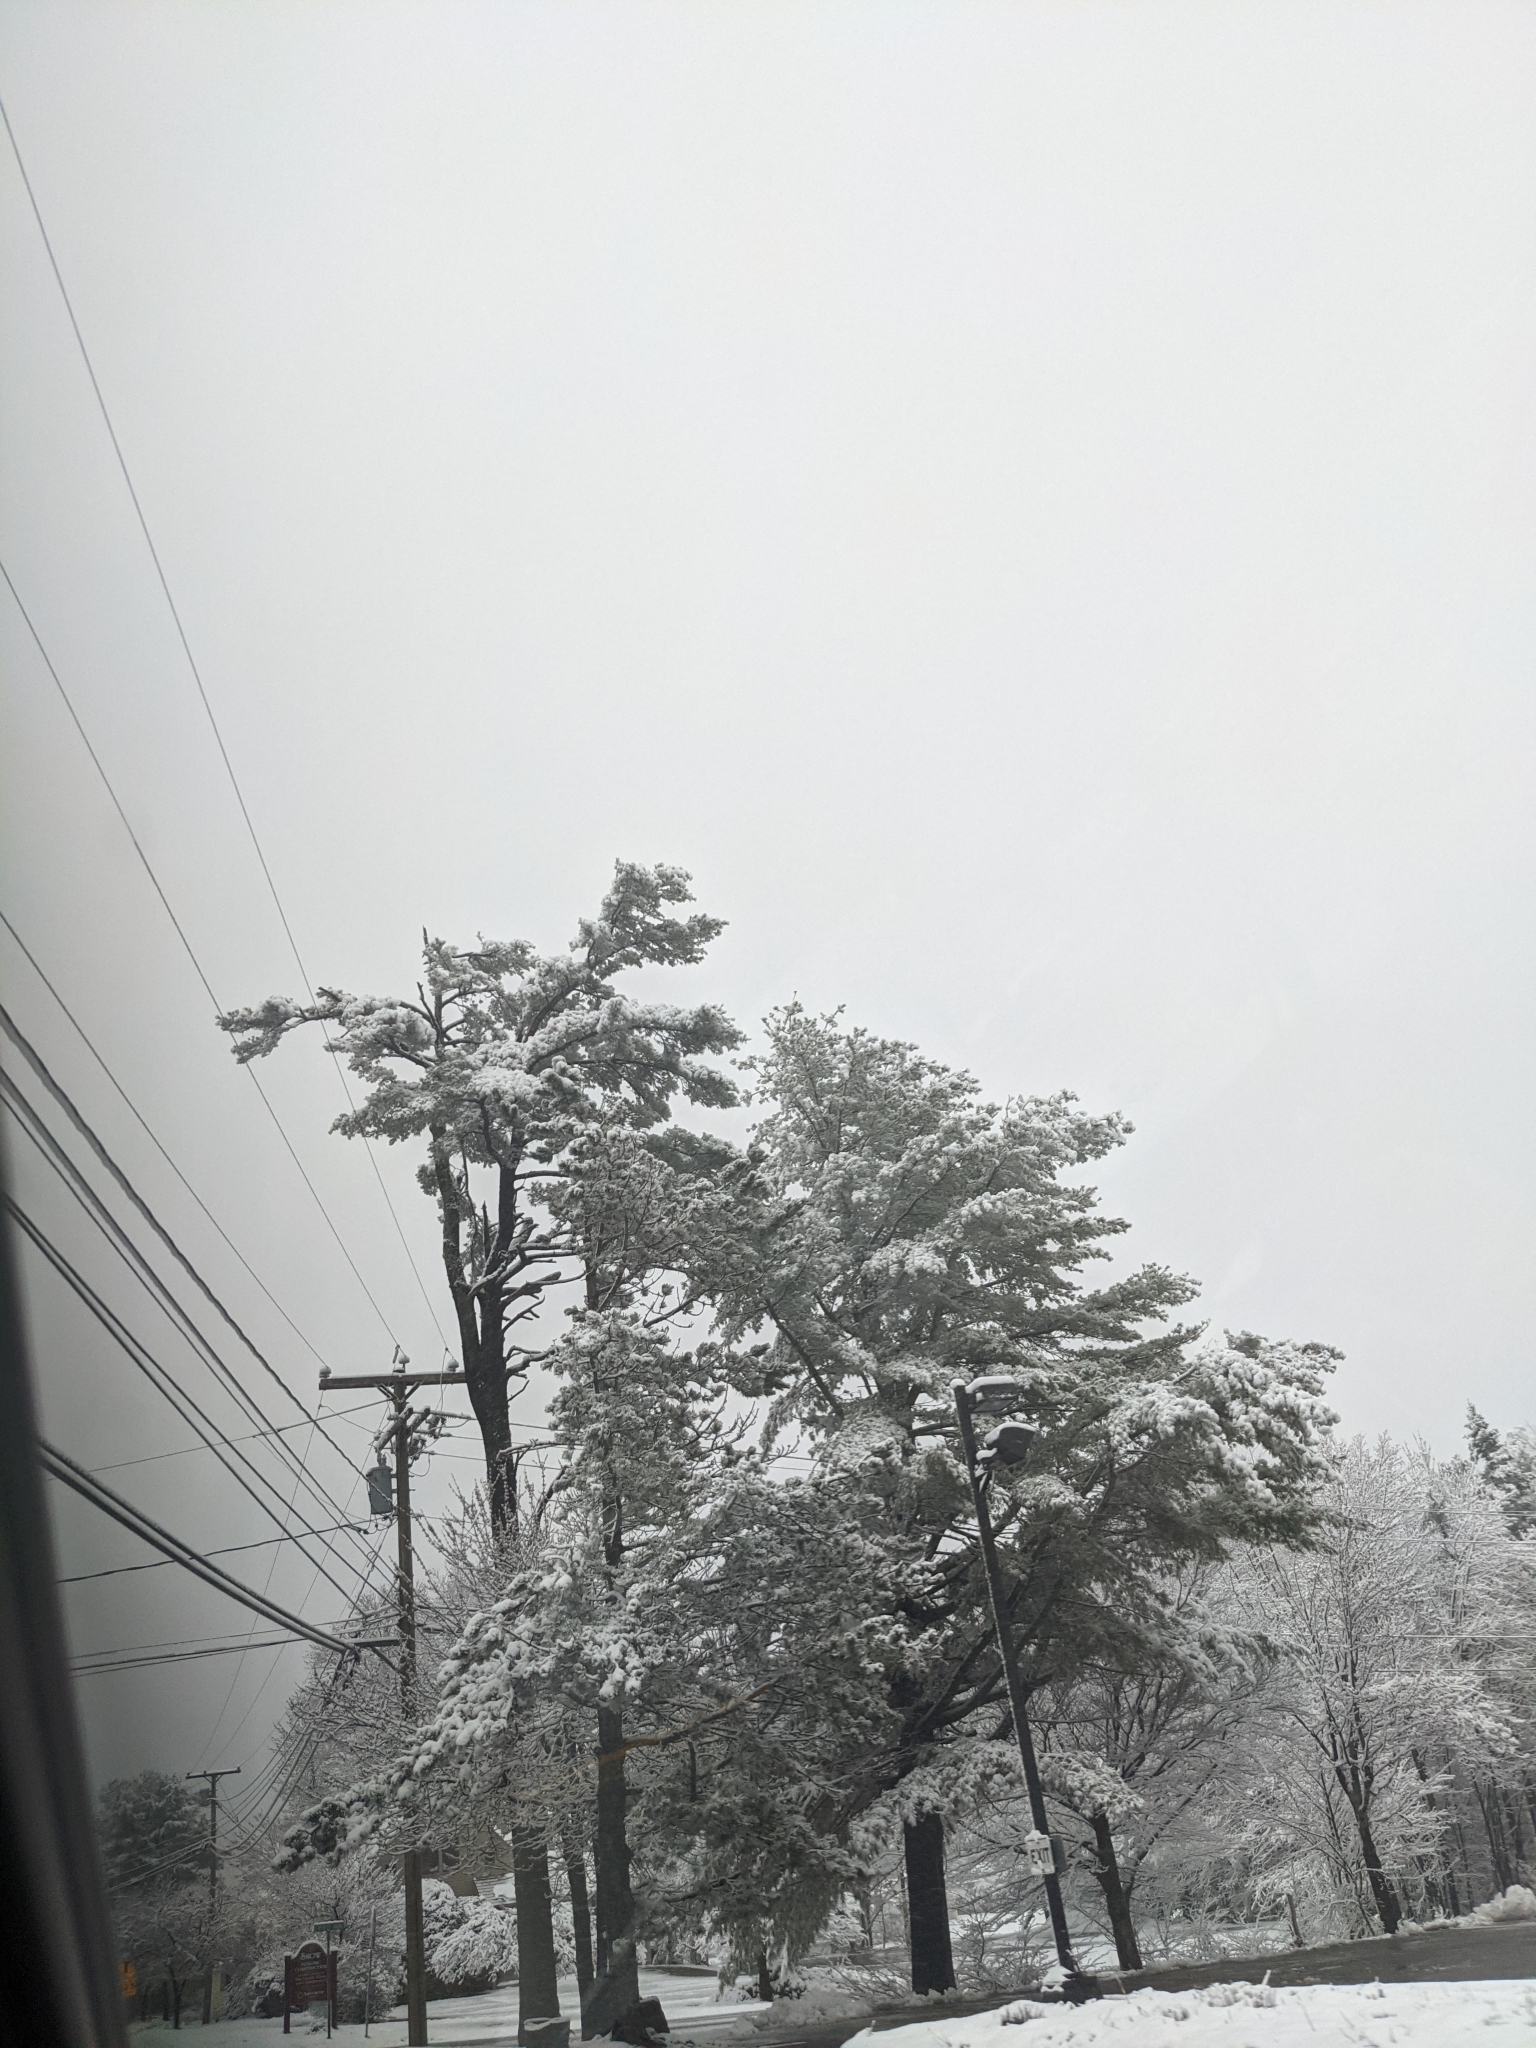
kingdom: Plantae
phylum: Tracheophyta
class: Pinopsida
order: Pinales
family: Pinaceae
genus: Pinus
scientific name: Pinus strobus
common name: Weymouth pine
